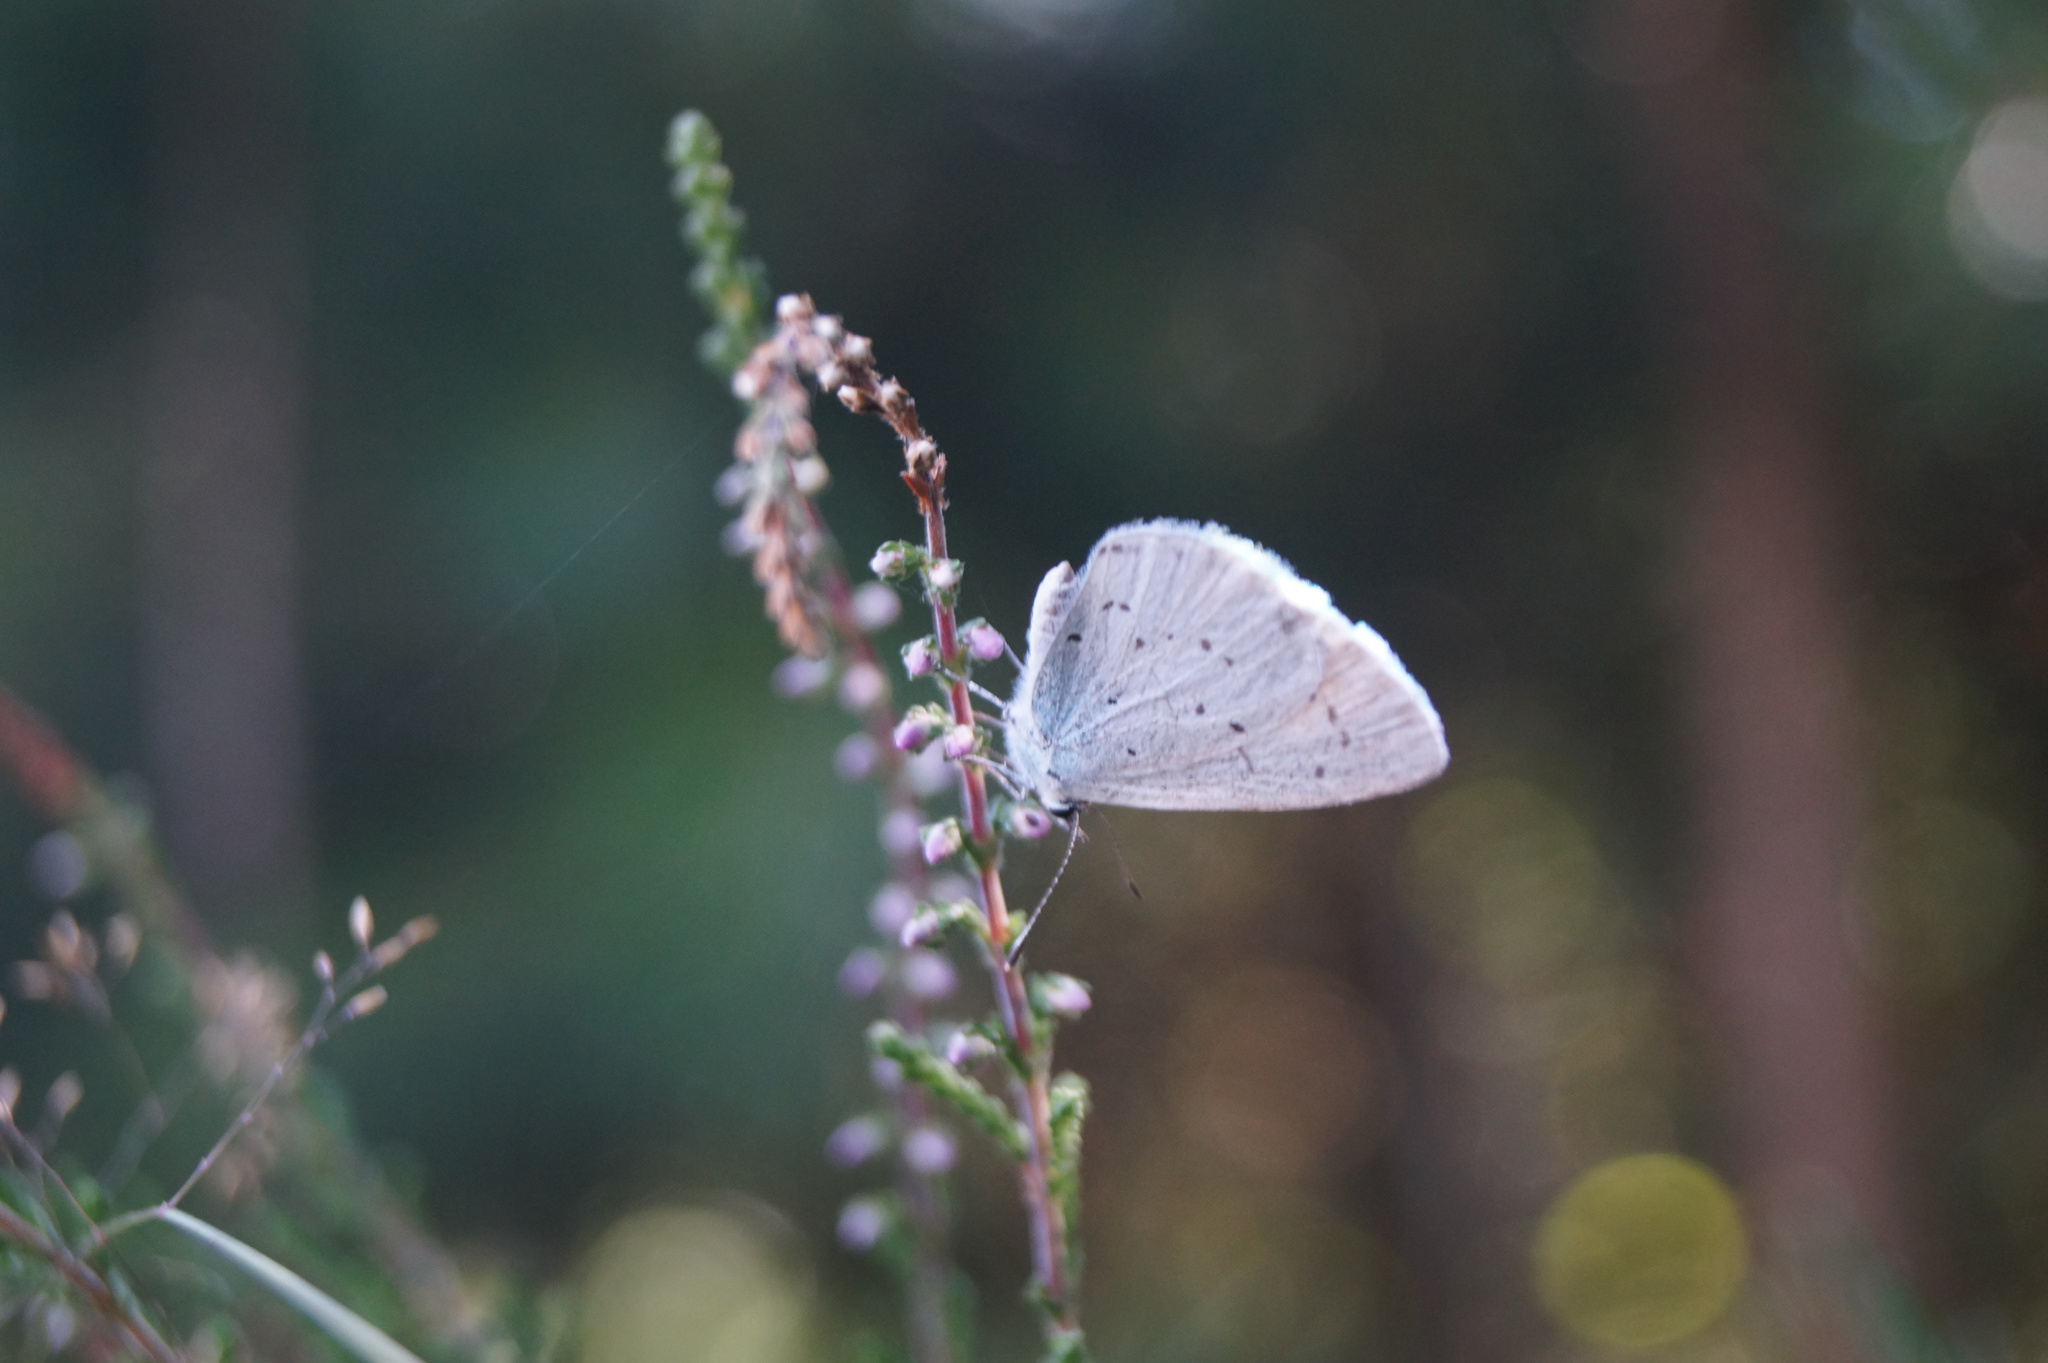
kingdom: Animalia
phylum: Arthropoda
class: Insecta
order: Lepidoptera
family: Lycaenidae
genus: Celastrina
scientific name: Celastrina argiolus
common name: Holly blue
